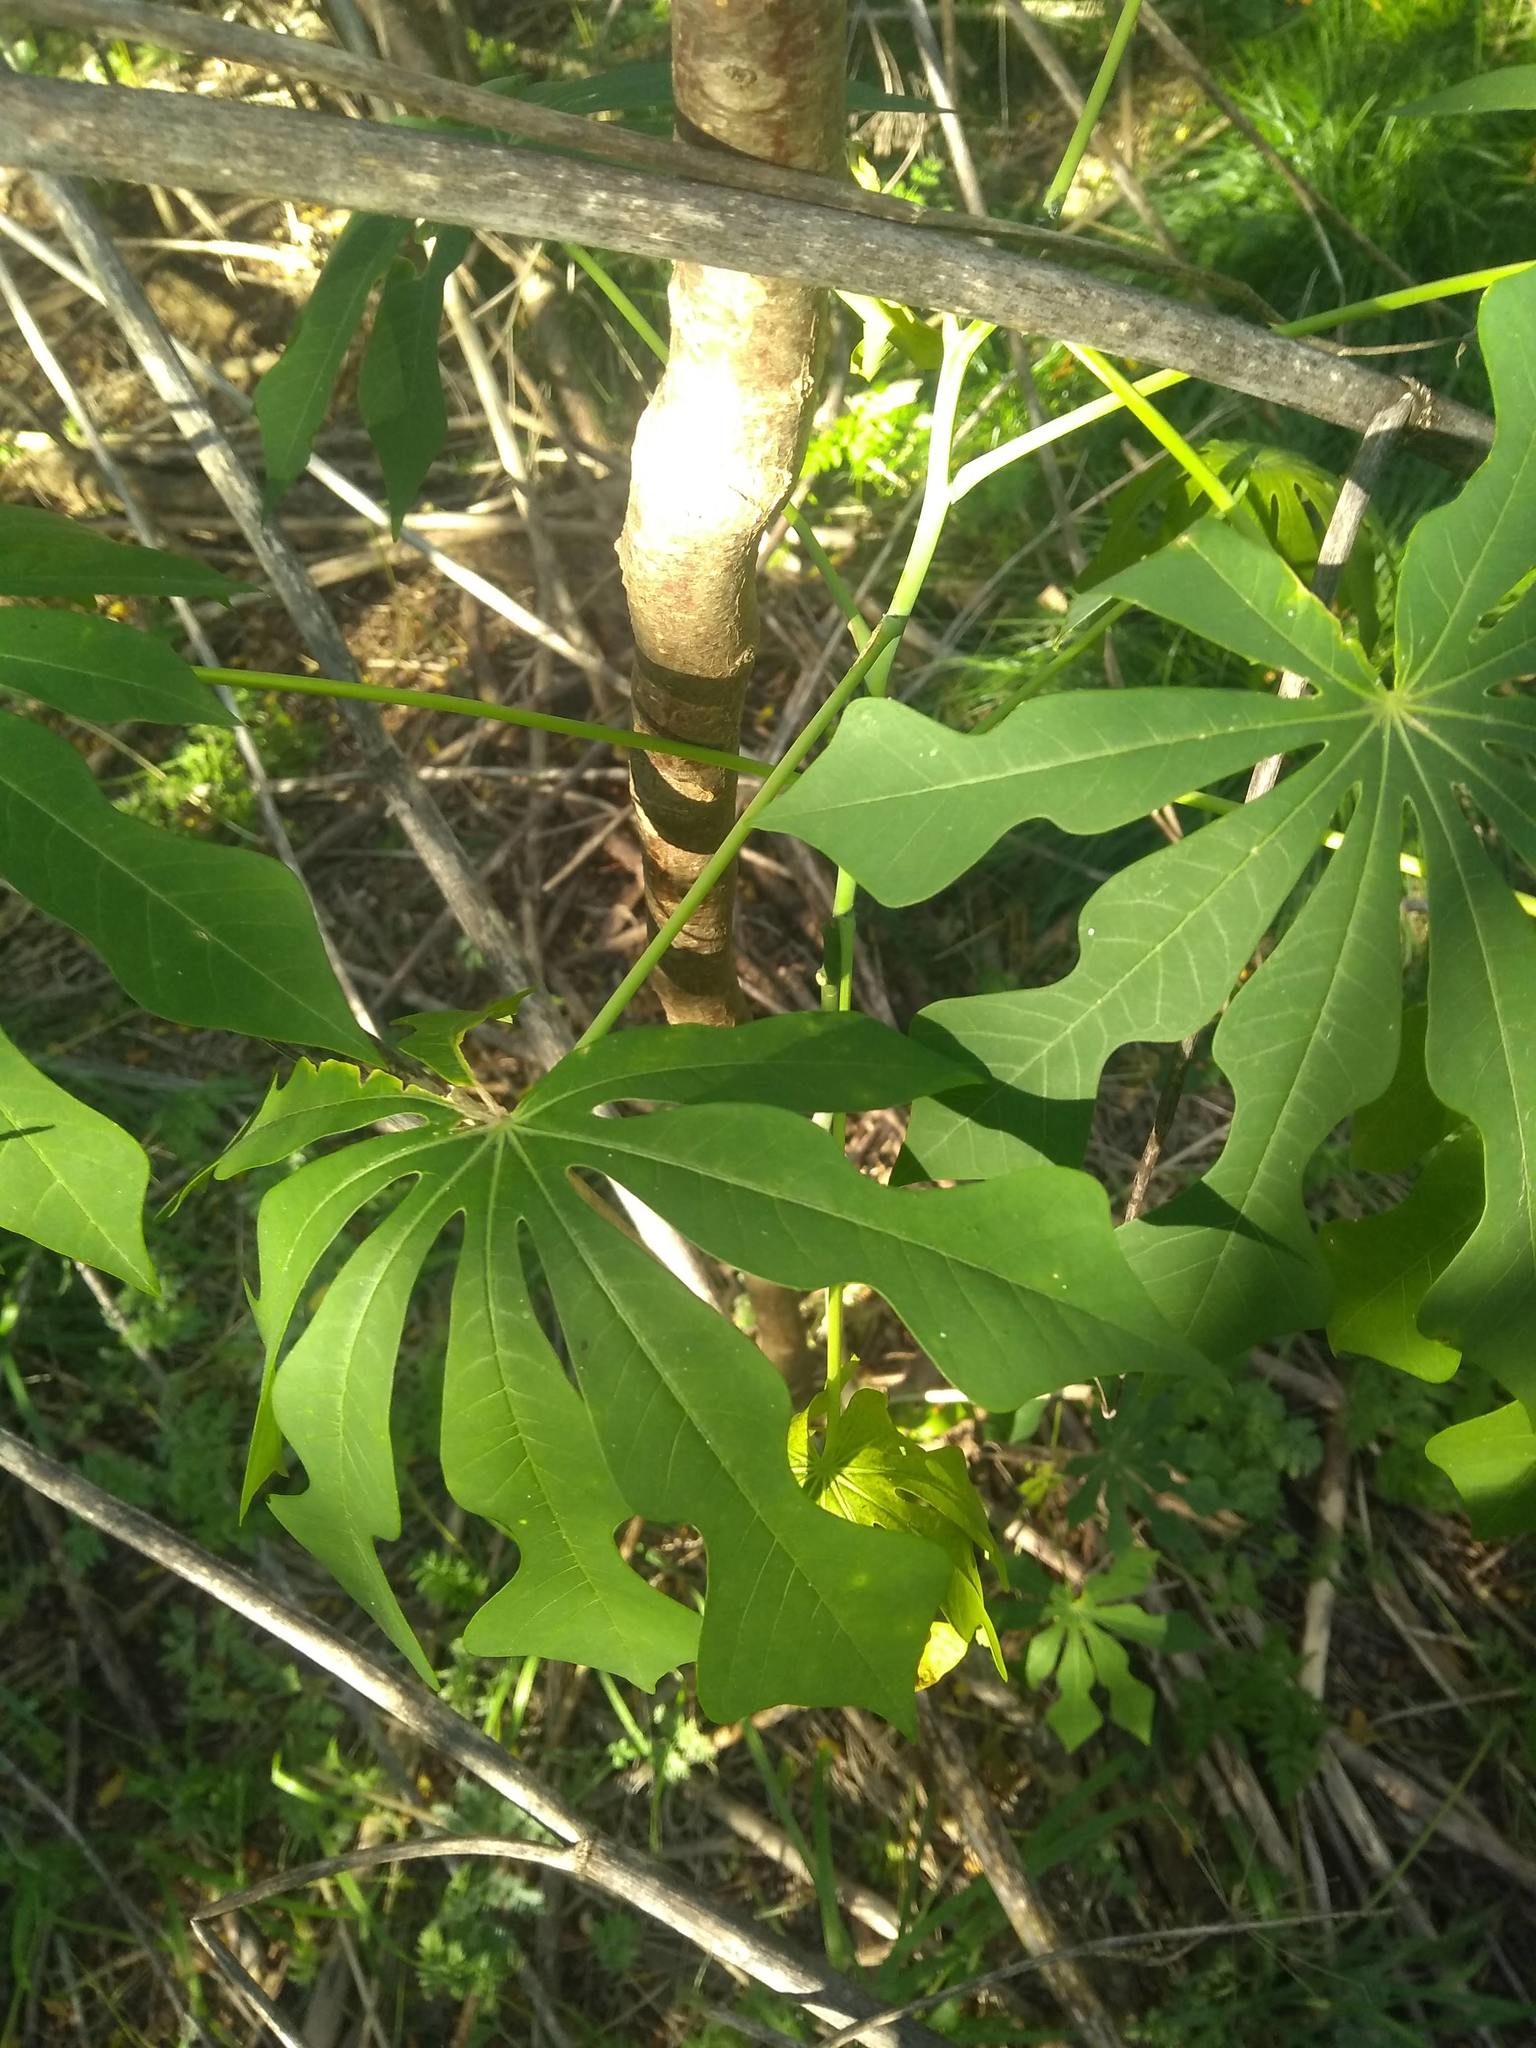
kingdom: Plantae
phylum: Tracheophyta
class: Magnoliopsida
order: Malpighiales
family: Euphorbiaceae
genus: Manihot
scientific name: Manihot grahamii
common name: Graham's manihot
